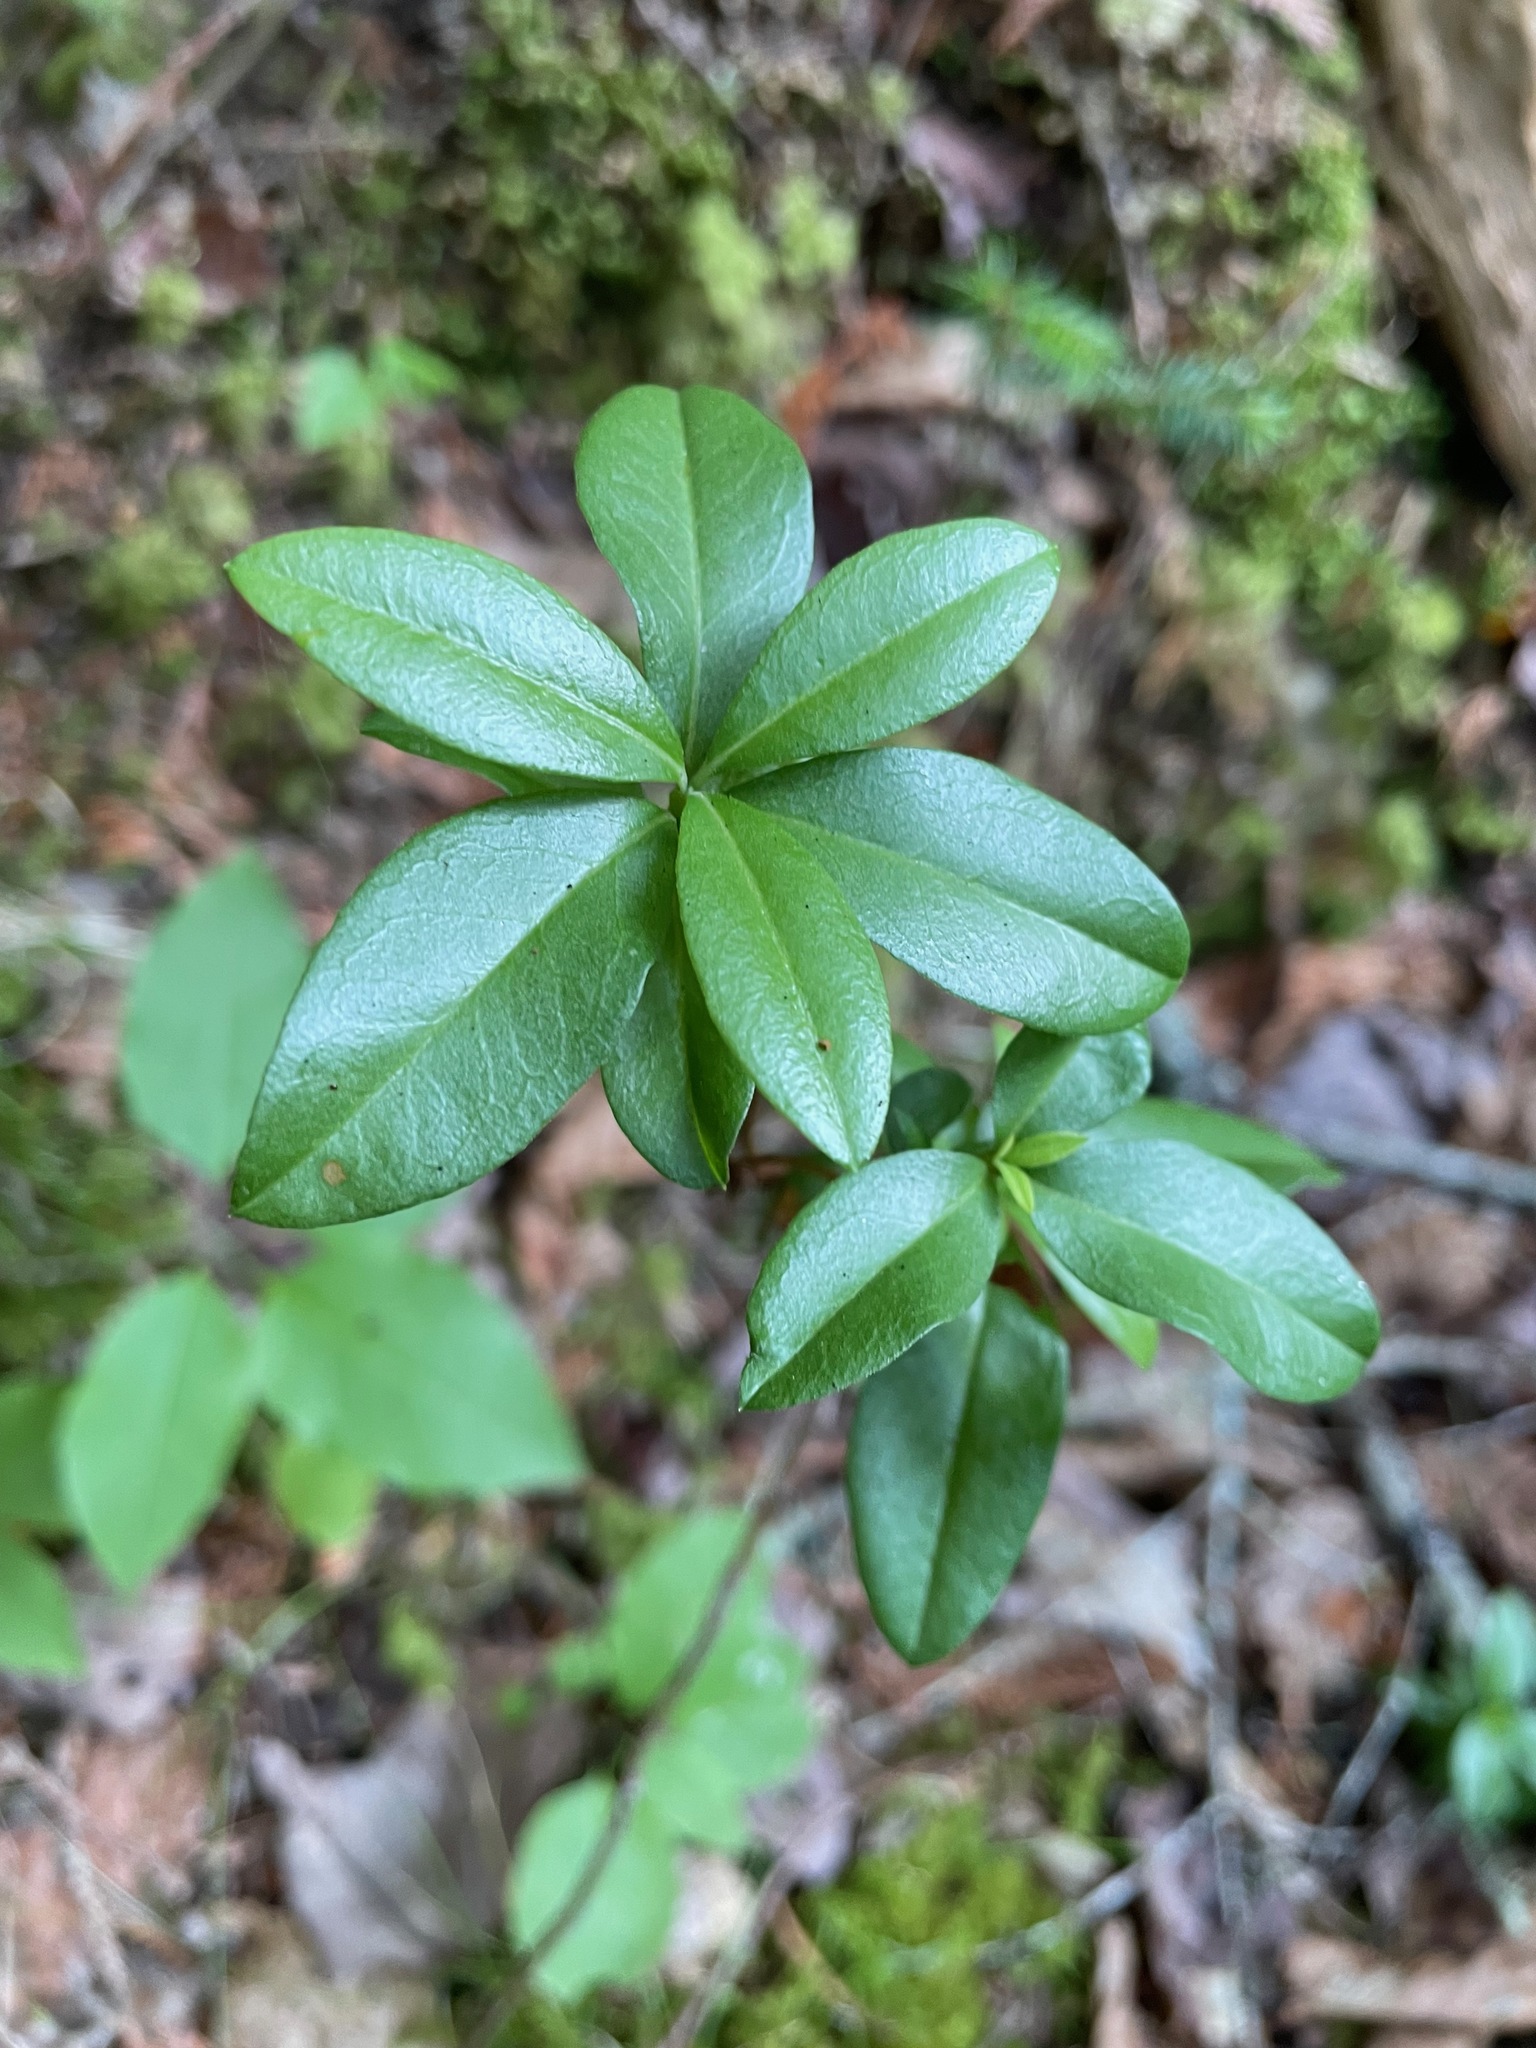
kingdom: Plantae
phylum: Tracheophyta
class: Magnoliopsida
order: Ericales
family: Ericaceae
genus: Kalmia
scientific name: Kalmia angustifolia
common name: Sheep-laurel
